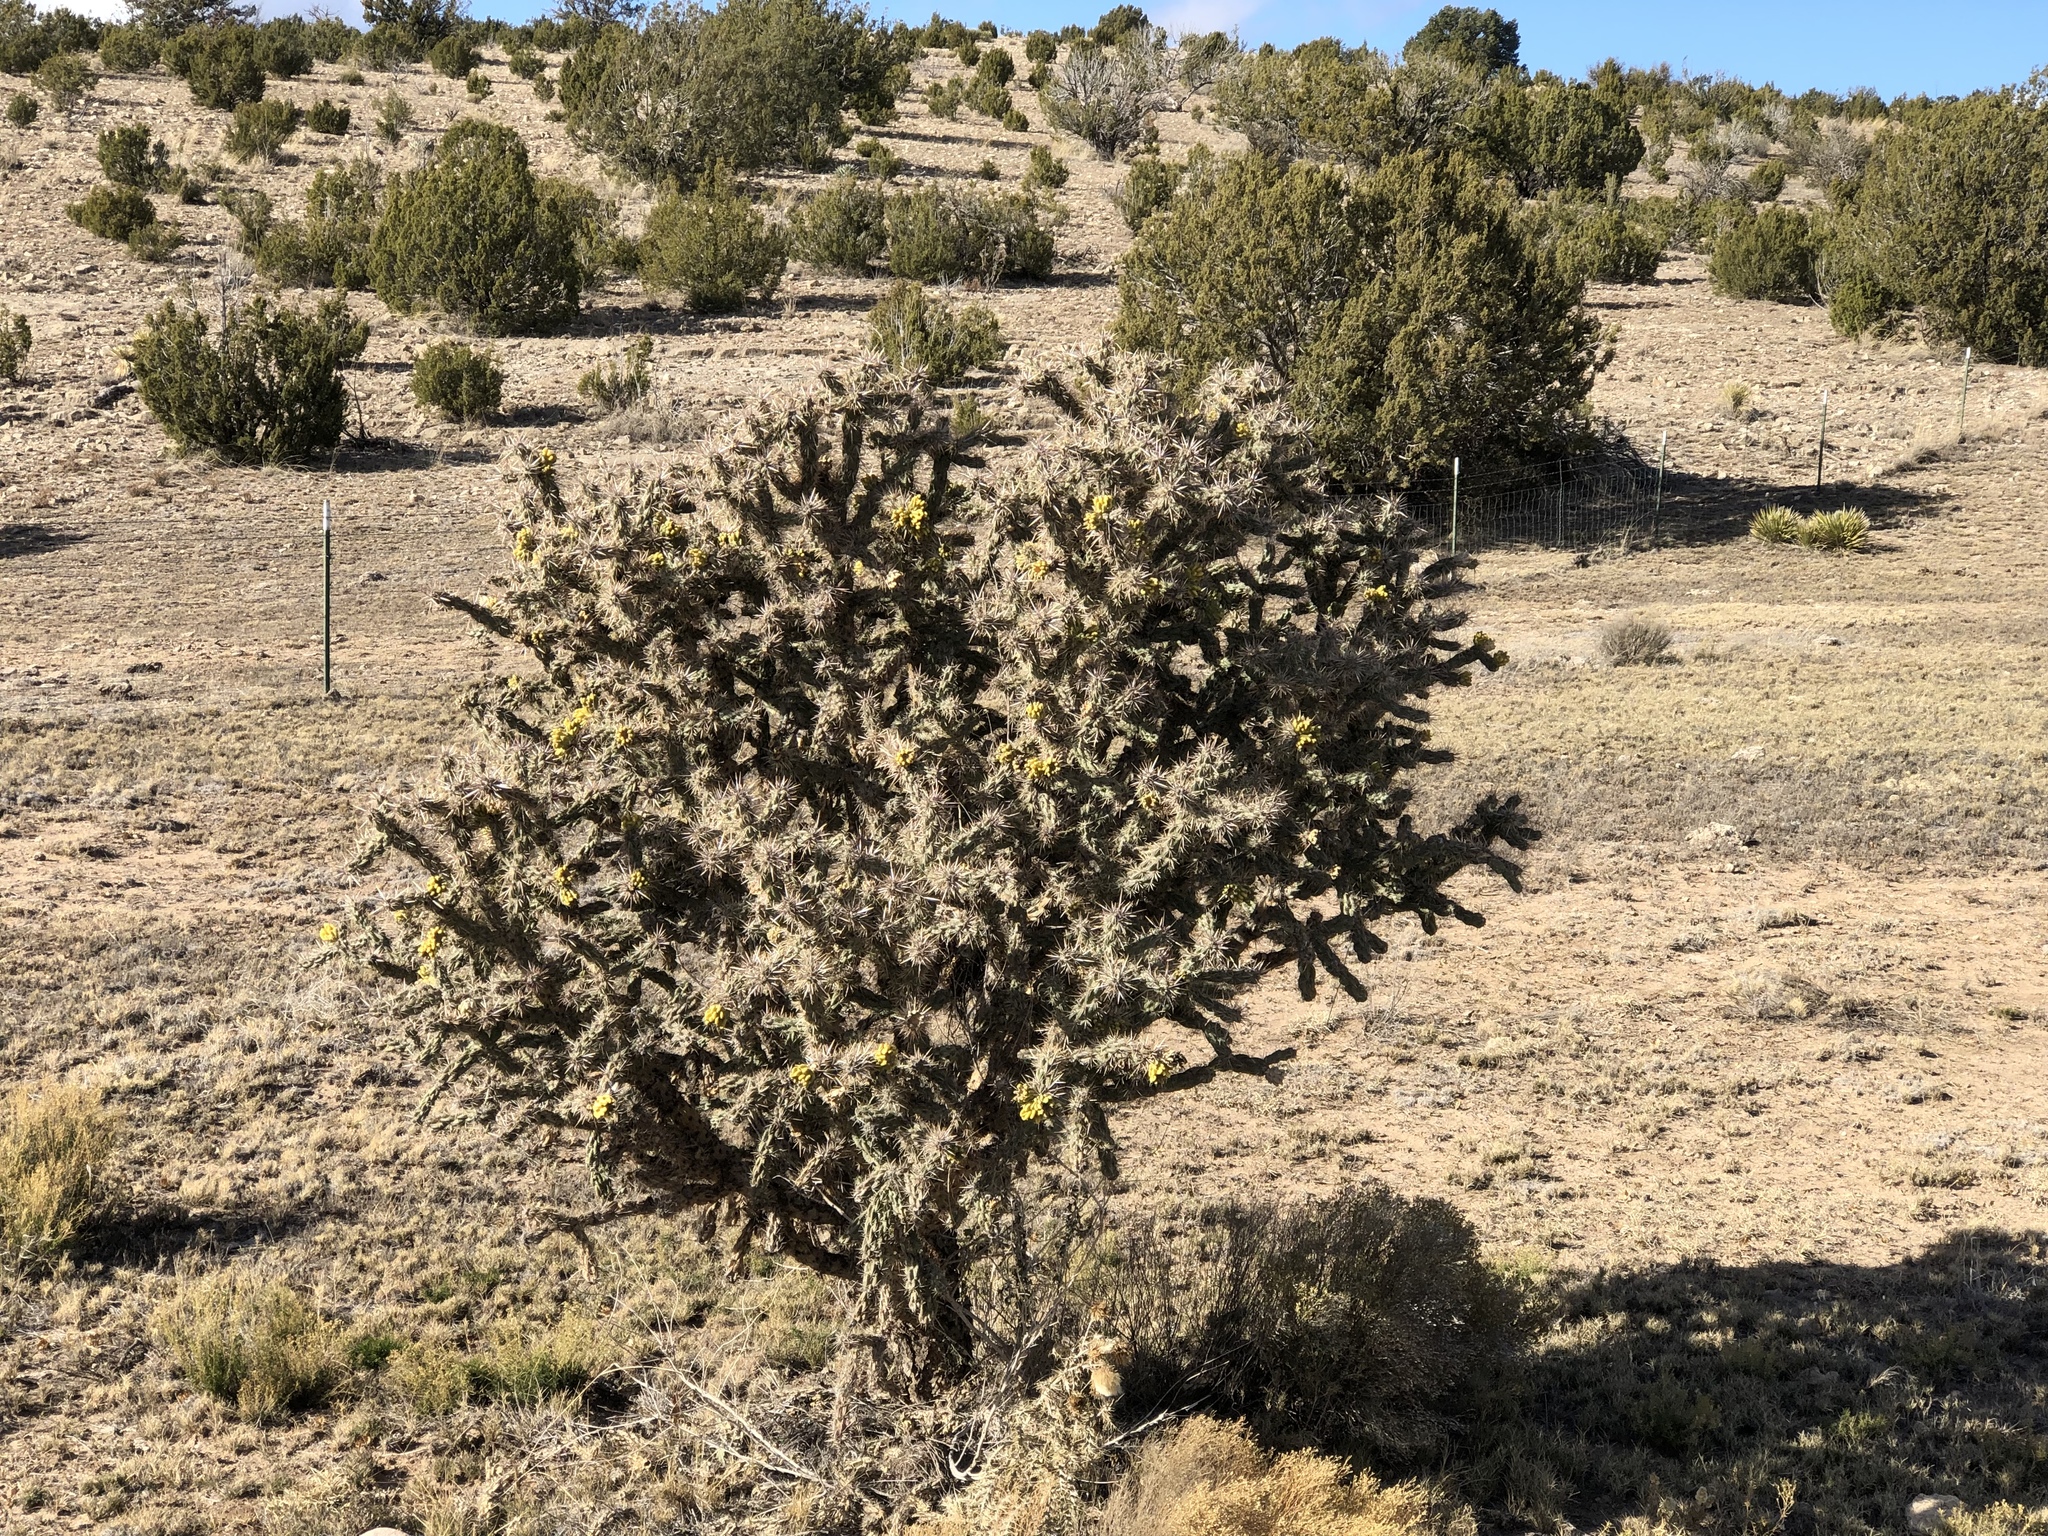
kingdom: Plantae
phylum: Tracheophyta
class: Magnoliopsida
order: Caryophyllales
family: Cactaceae
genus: Cylindropuntia
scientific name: Cylindropuntia imbricata
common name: Candelabrum cactus
